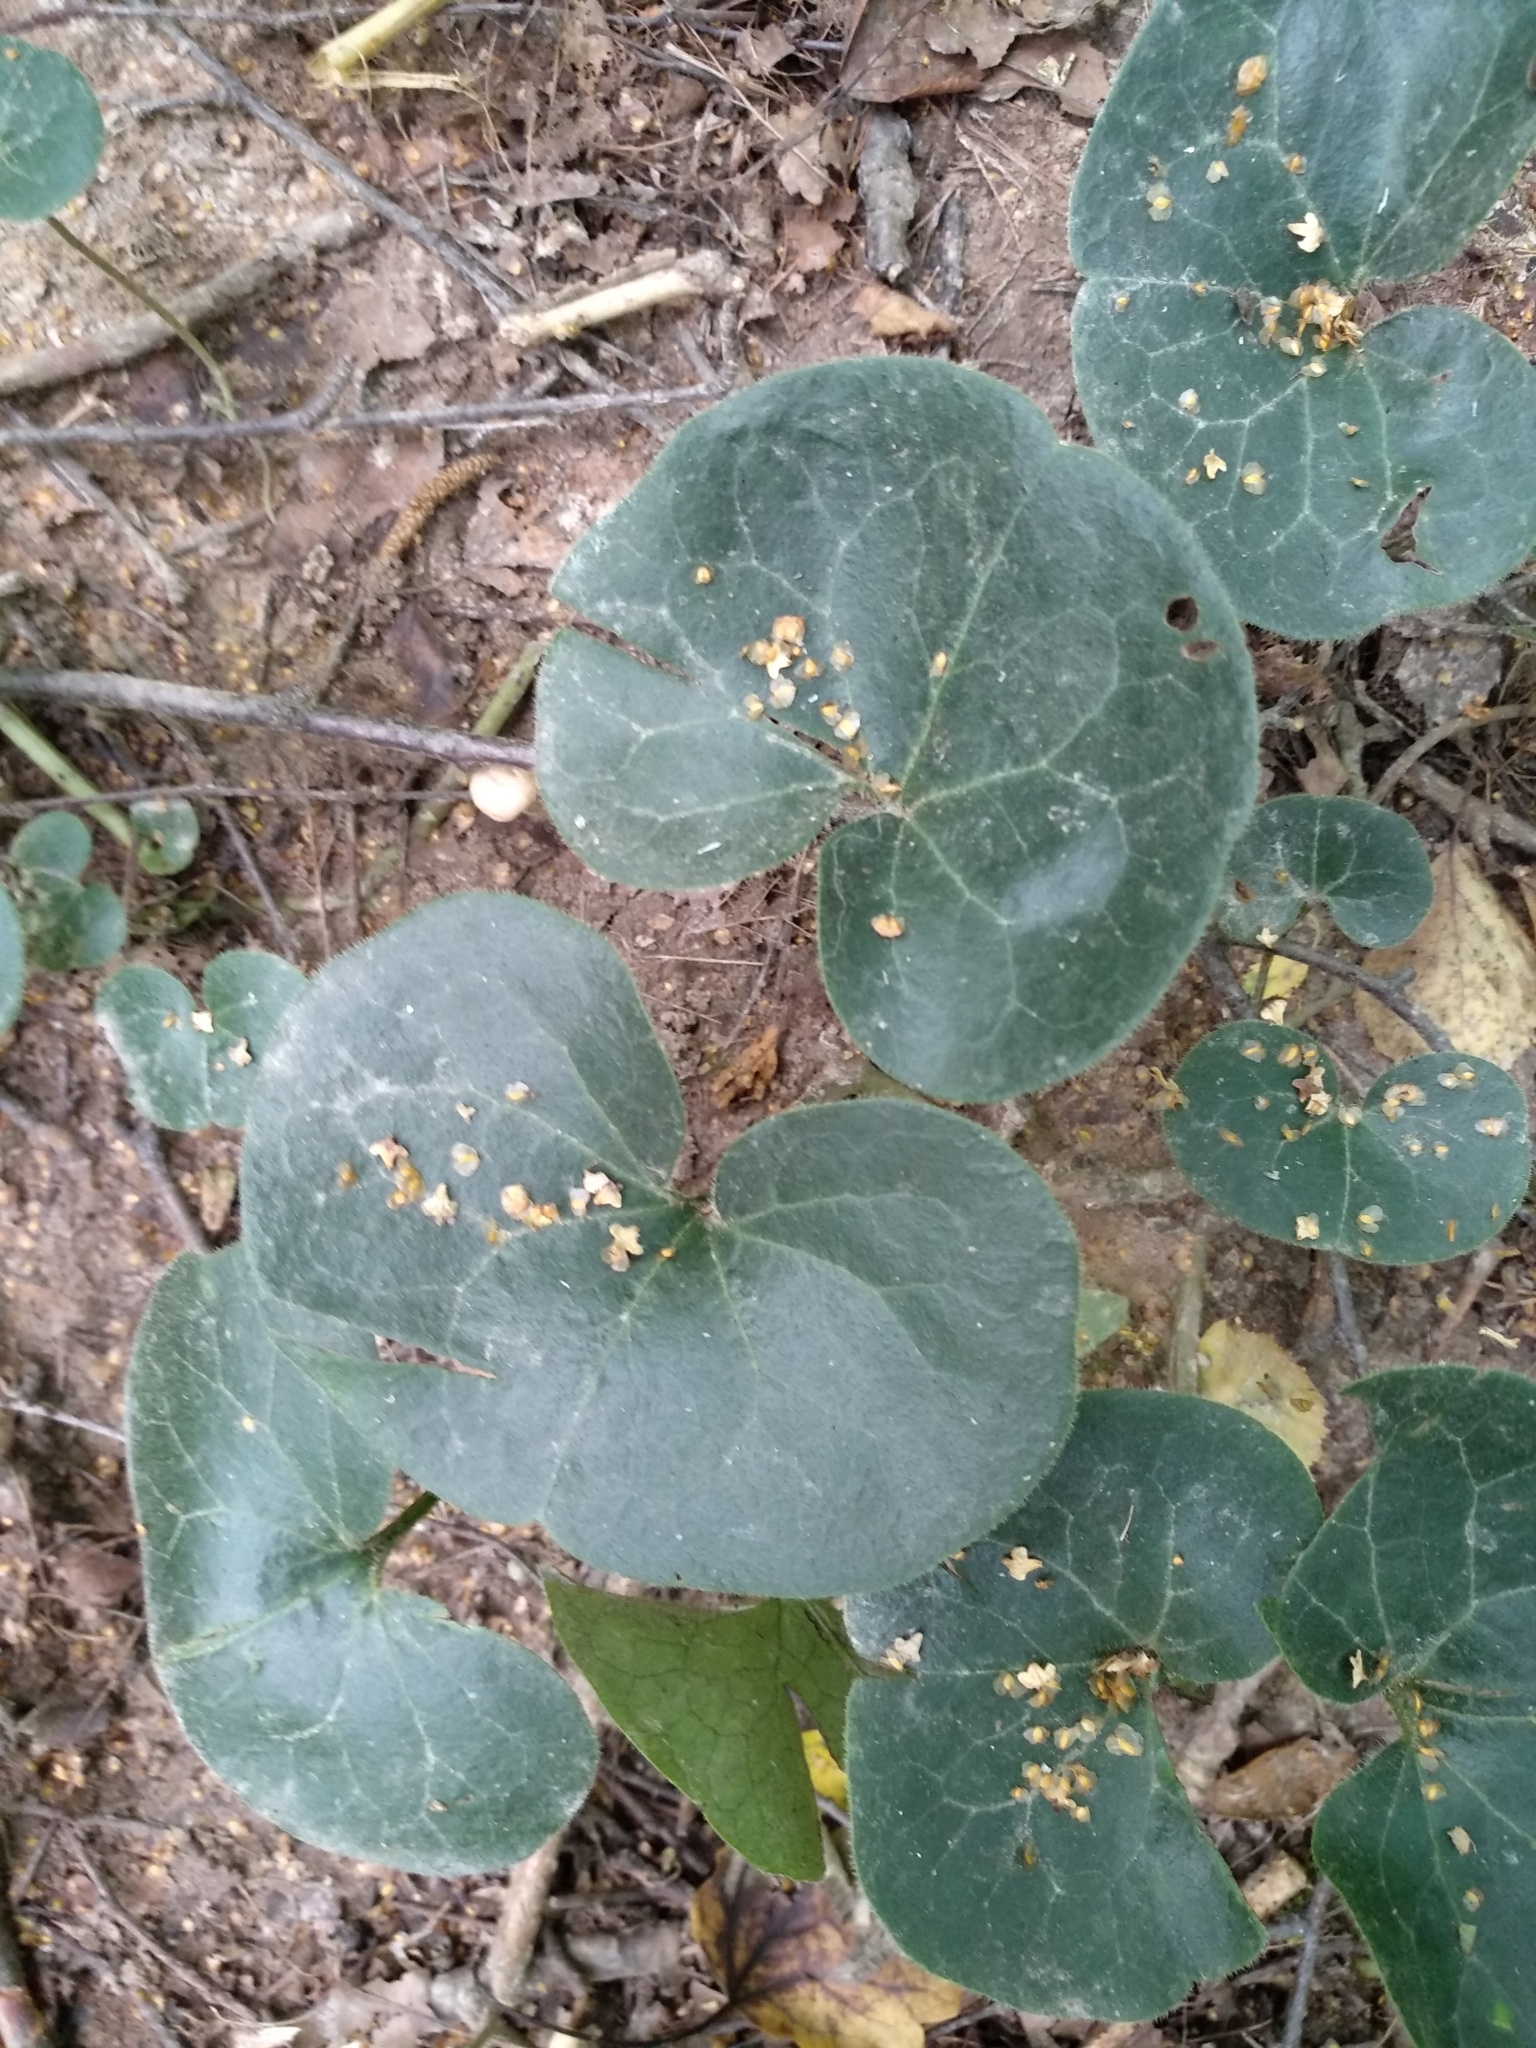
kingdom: Plantae
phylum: Tracheophyta
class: Magnoliopsida
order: Piperales
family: Aristolochiaceae
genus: Asarum
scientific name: Asarum europaeum
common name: Asarabacca
